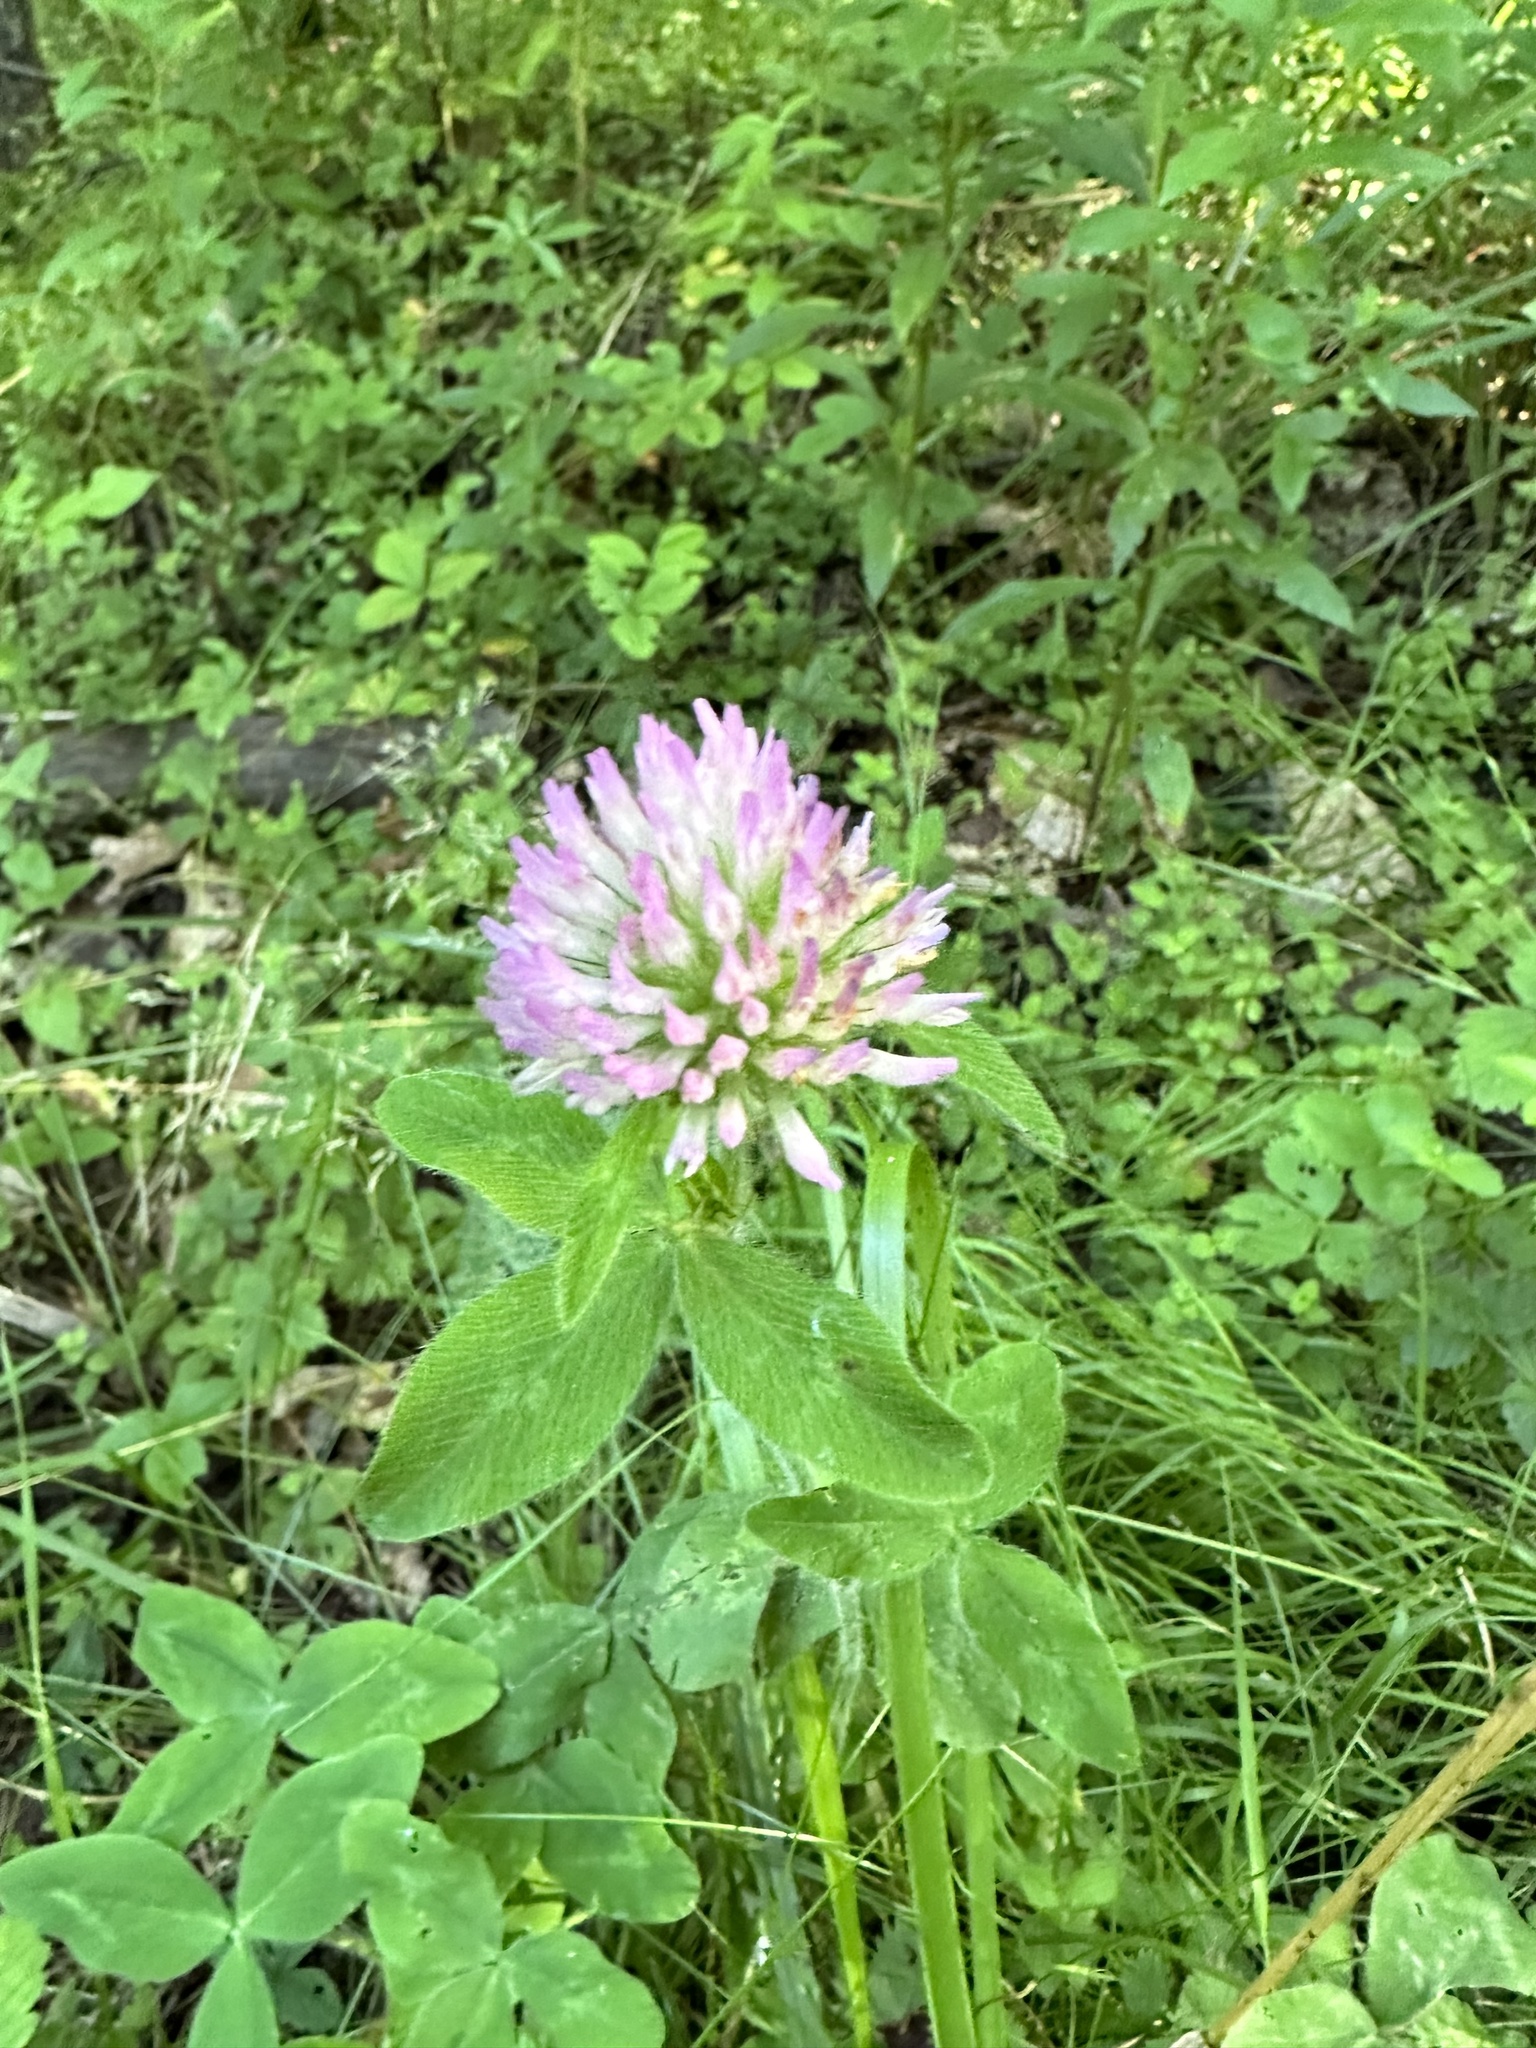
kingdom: Plantae
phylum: Tracheophyta
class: Magnoliopsida
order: Fabales
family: Fabaceae
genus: Trifolium
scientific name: Trifolium pratense
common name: Red clover
